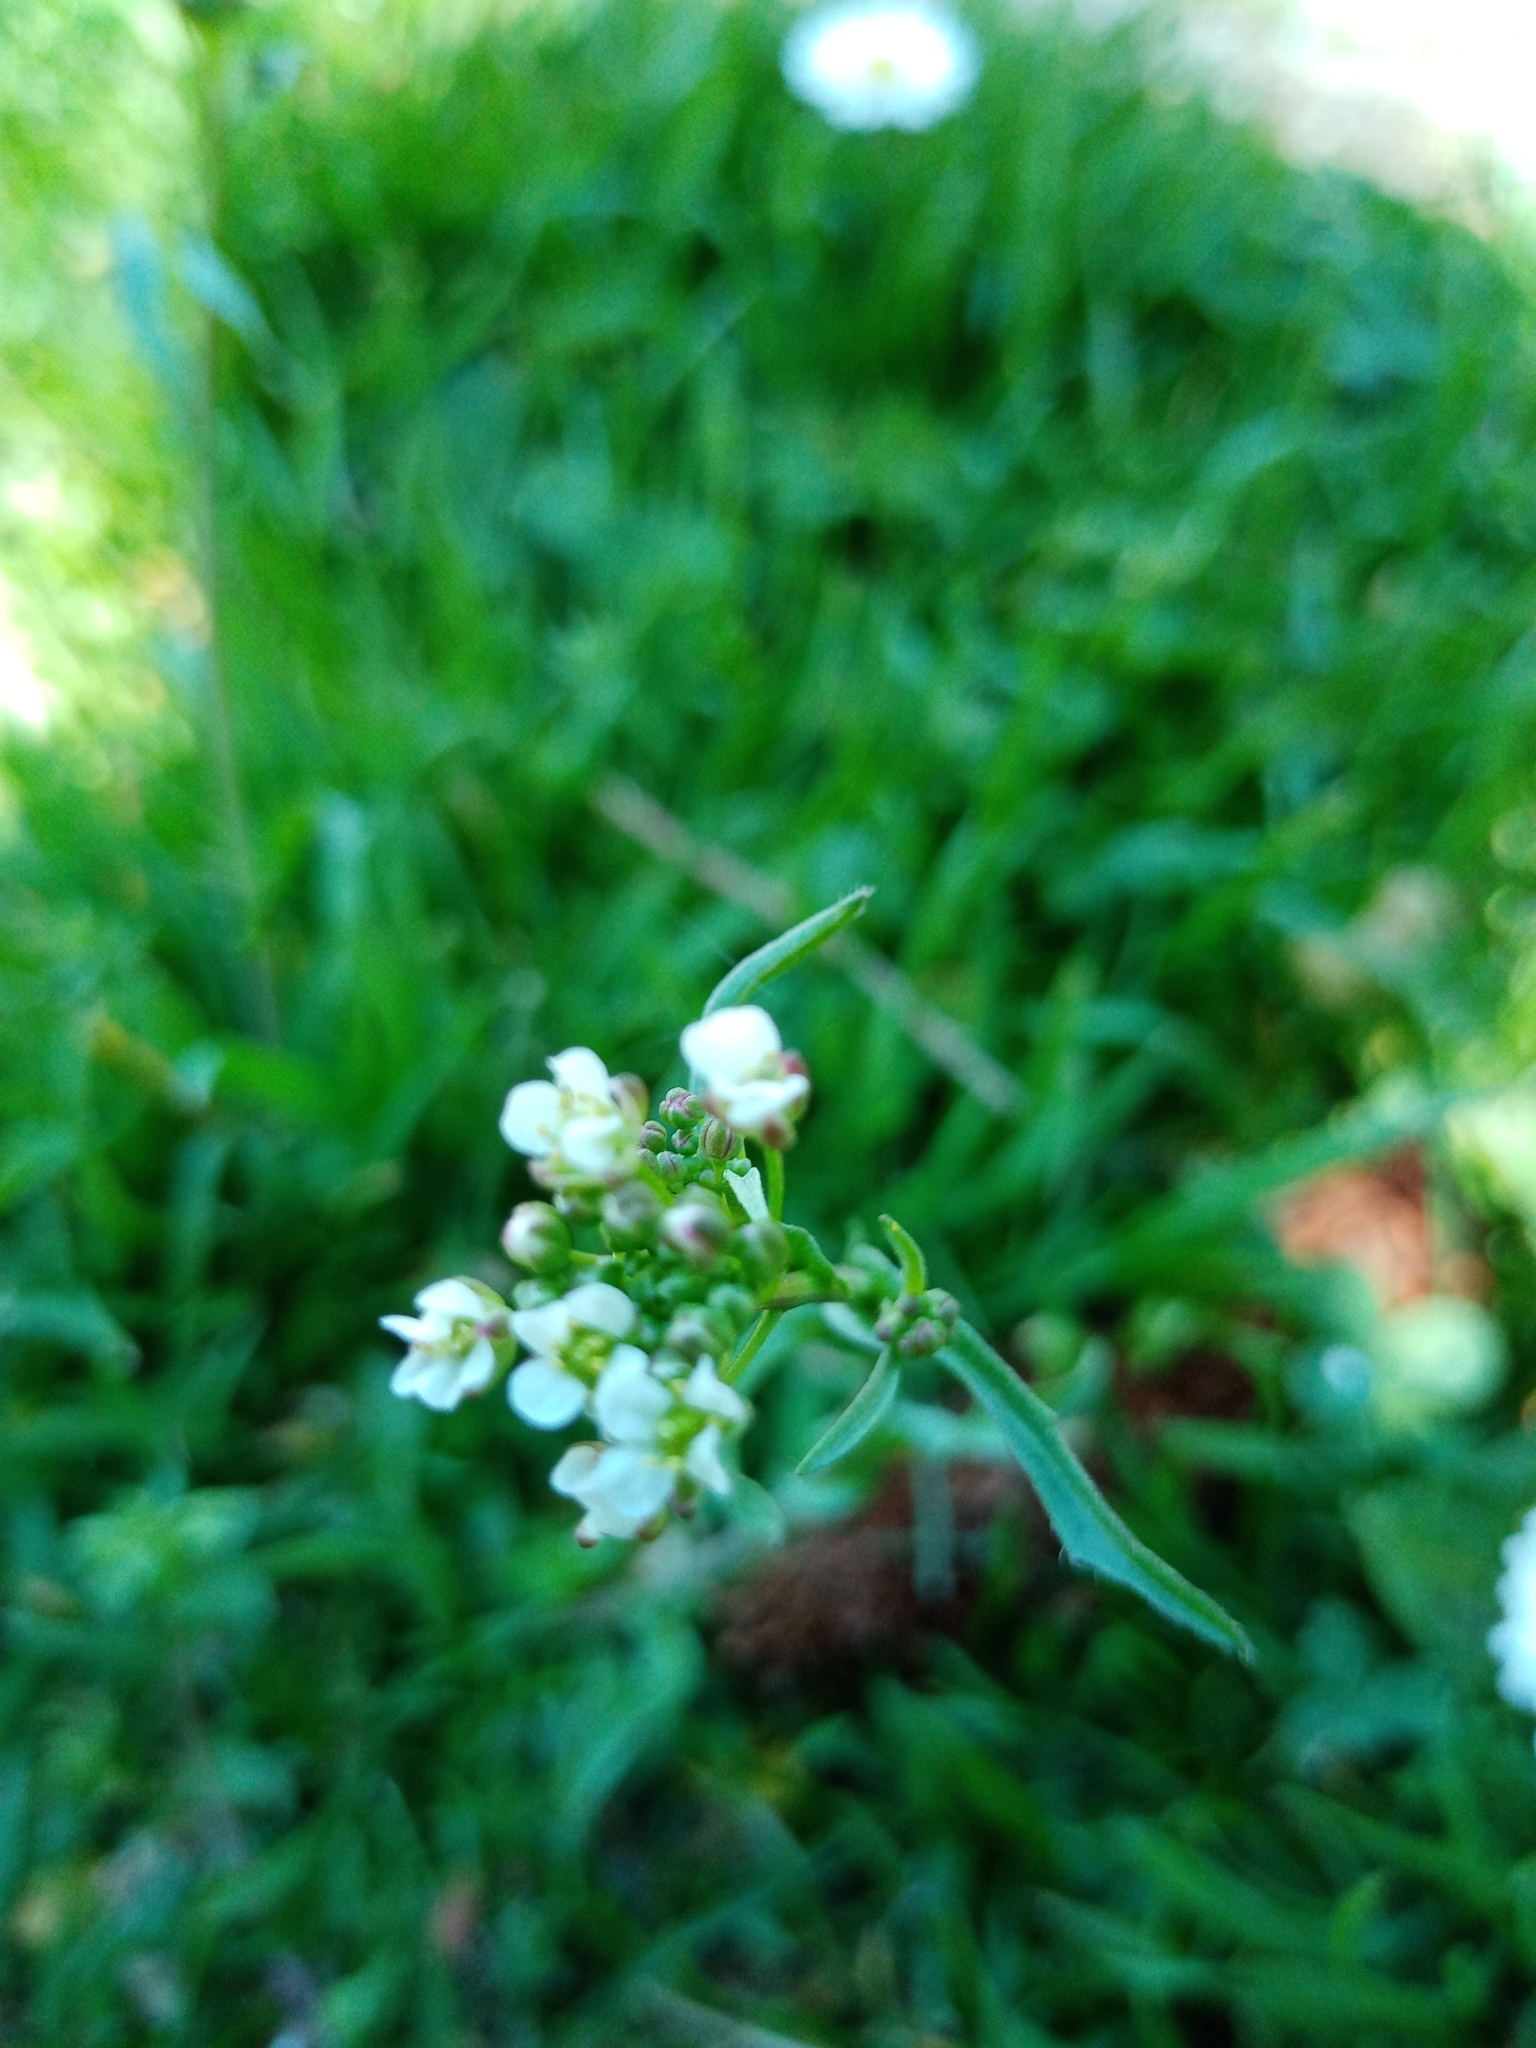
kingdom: Plantae
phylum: Tracheophyta
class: Magnoliopsida
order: Brassicales
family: Brassicaceae
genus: Capsella
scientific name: Capsella bursa-pastoris
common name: Shepherd's purse
